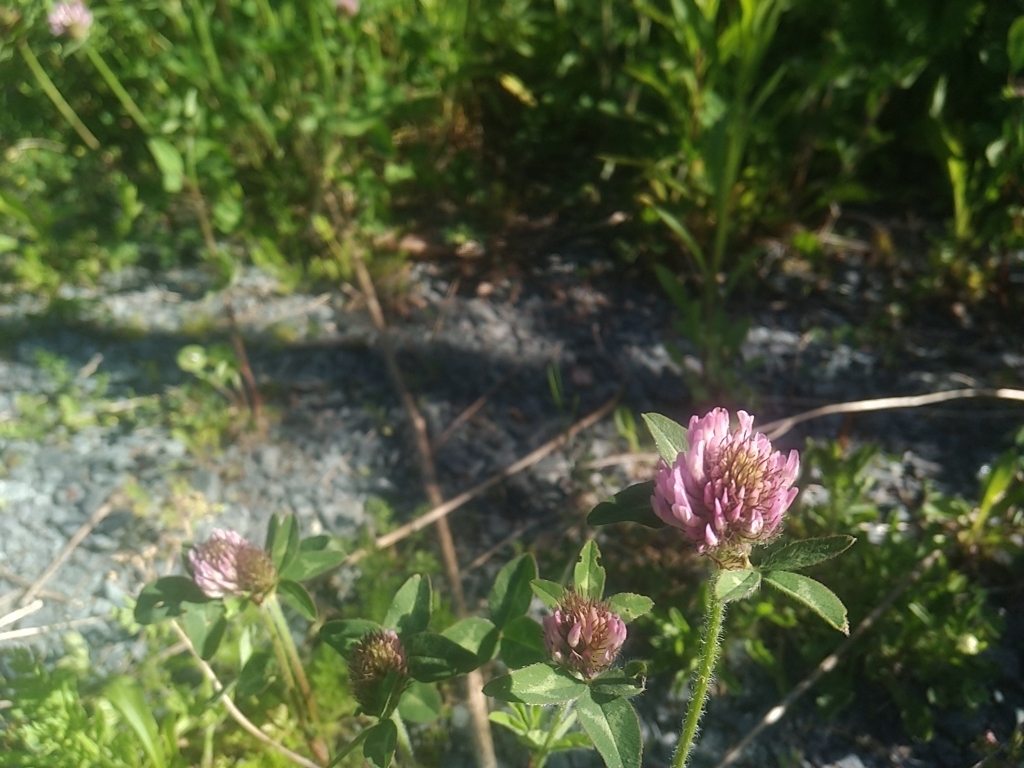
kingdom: Plantae
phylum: Tracheophyta
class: Magnoliopsida
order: Fabales
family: Fabaceae
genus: Trifolium
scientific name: Trifolium pratense
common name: Red clover
